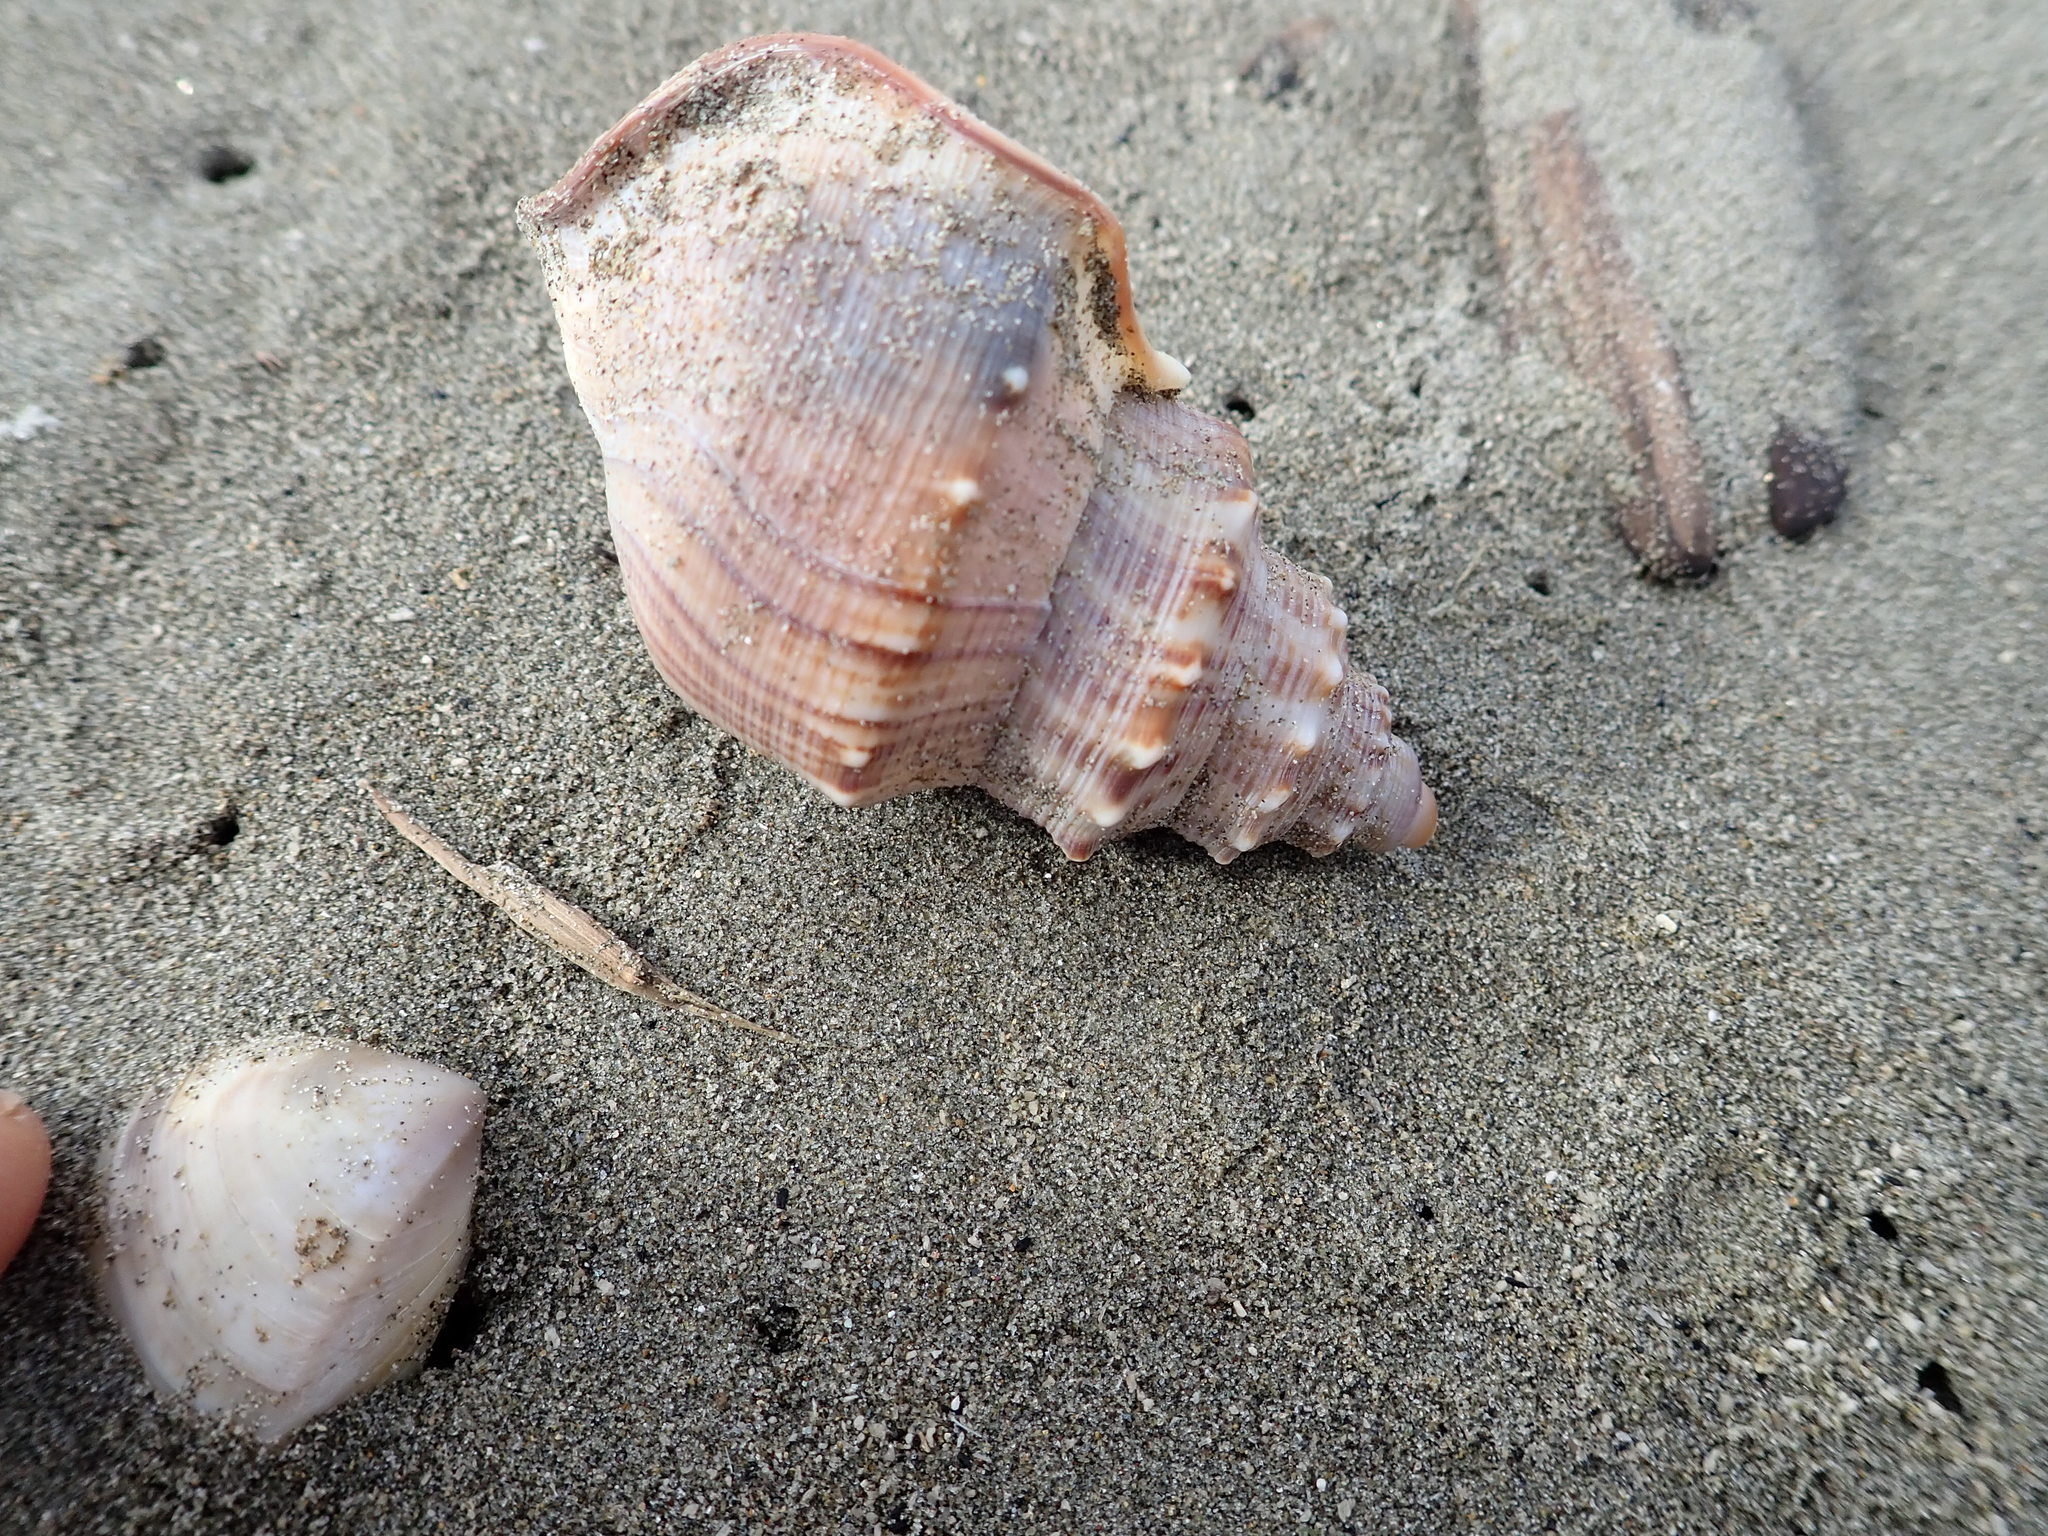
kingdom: Animalia
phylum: Mollusca
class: Gastropoda
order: Littorinimorpha
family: Struthiolariidae
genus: Struthiolaria
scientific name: Struthiolaria papulosa
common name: Large ostrich foot
